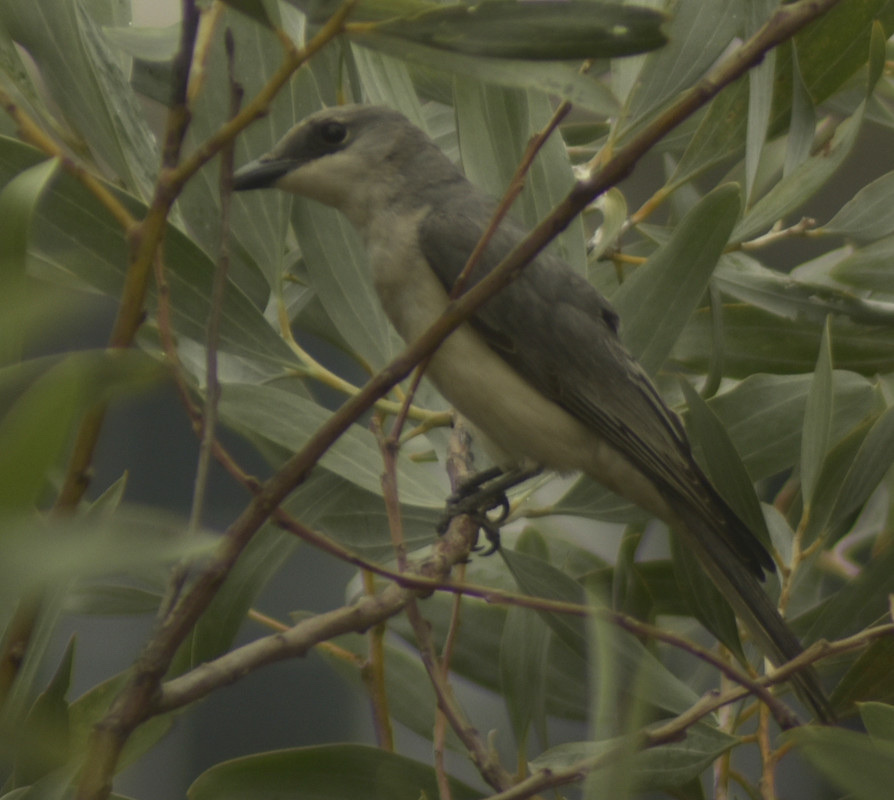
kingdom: Animalia
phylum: Chordata
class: Aves
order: Passeriformes
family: Campephagidae
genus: Coracina
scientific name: Coracina papuensis
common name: White-bellied cuckooshrike
